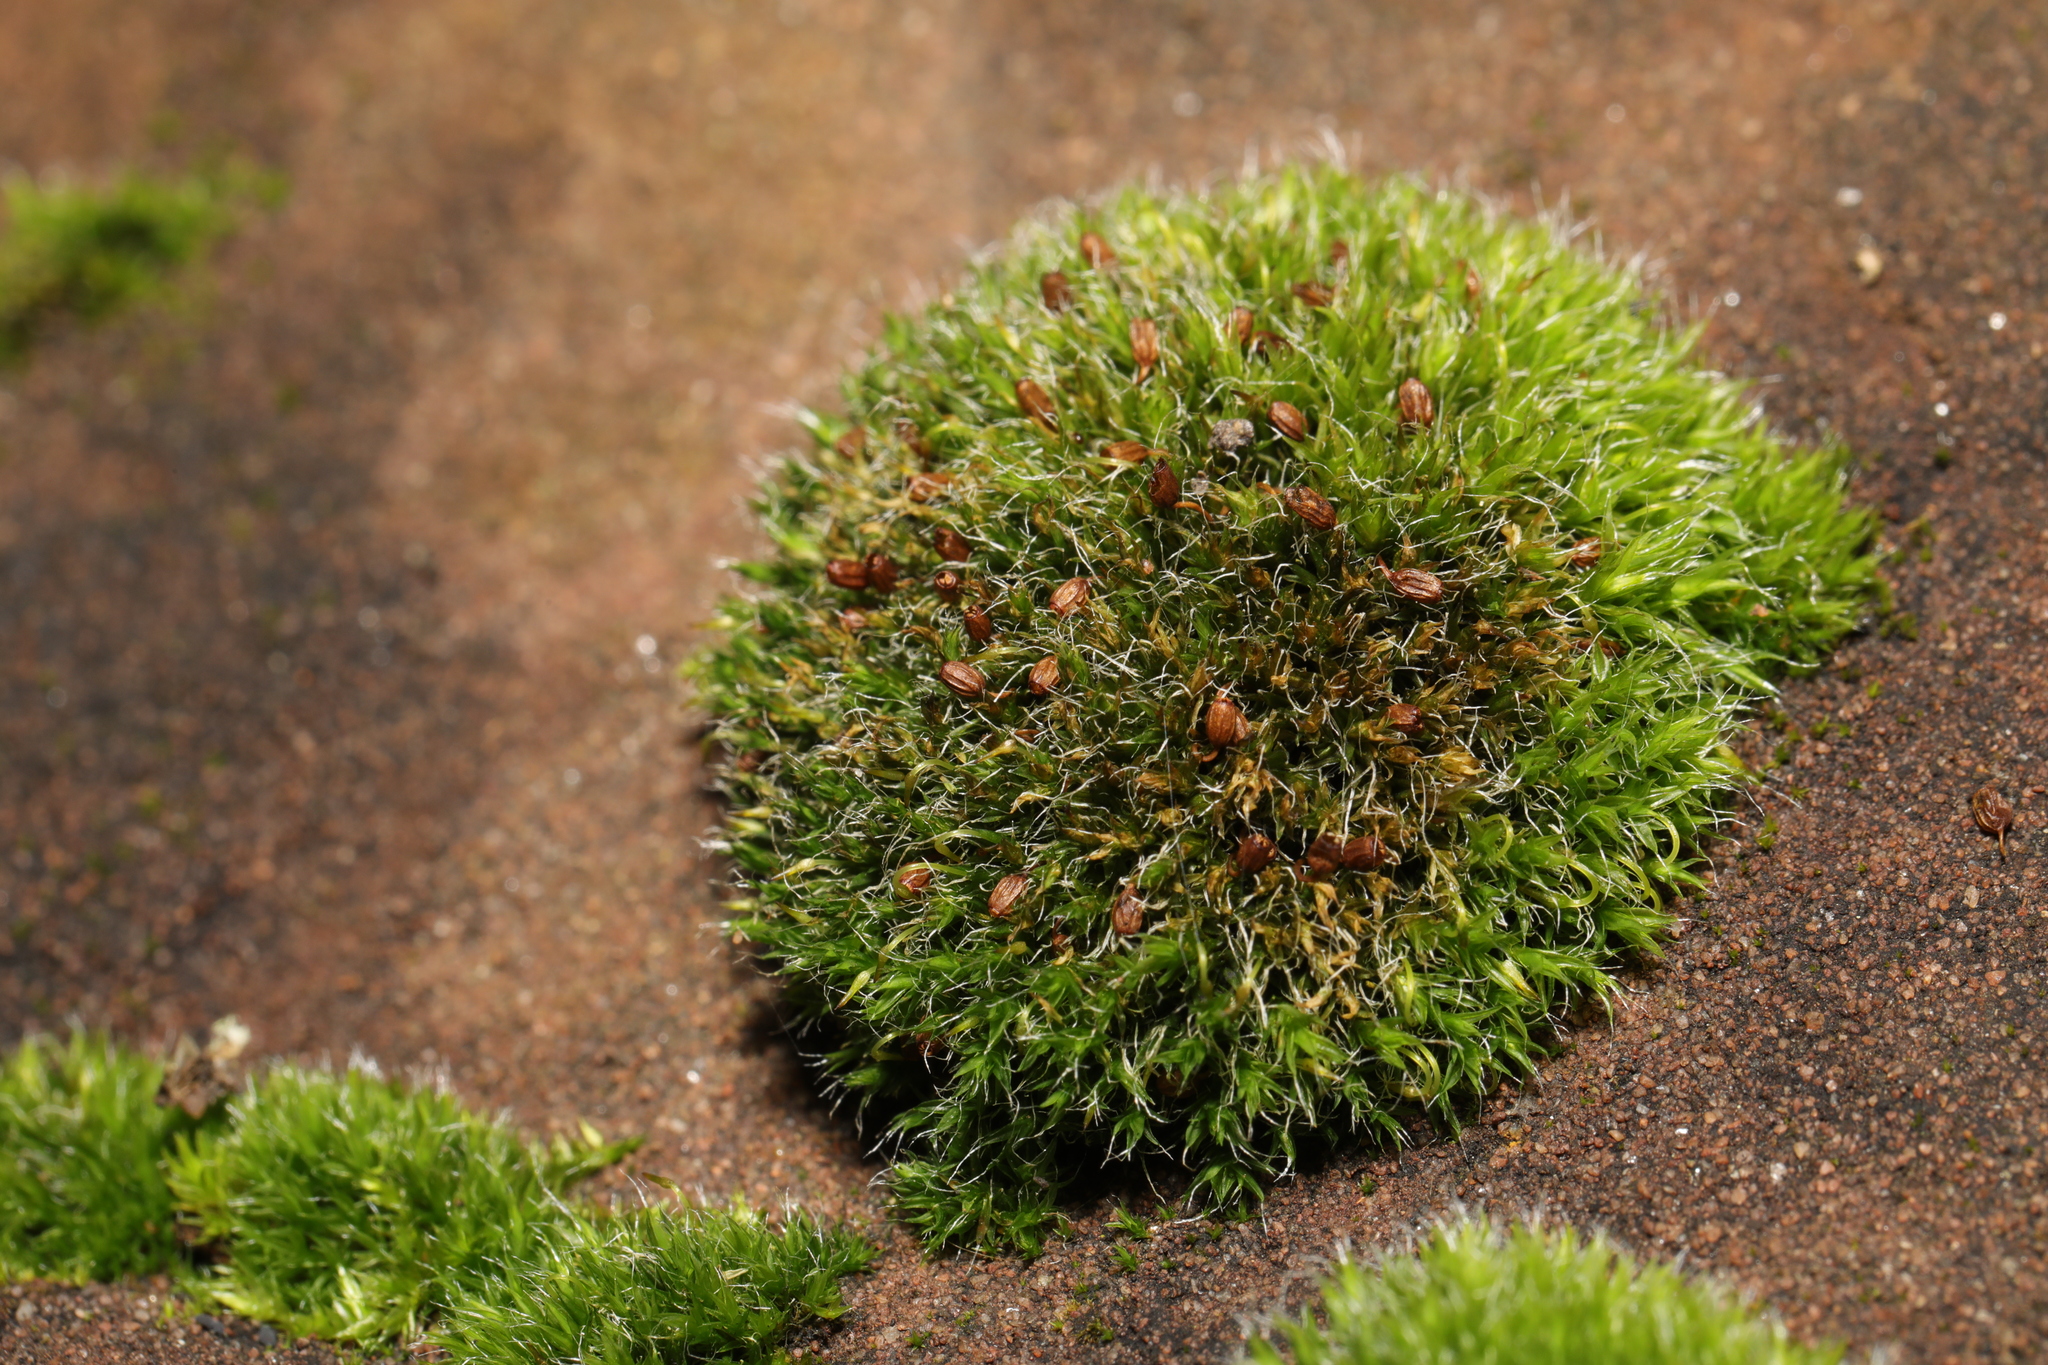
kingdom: Plantae
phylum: Bryophyta
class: Bryopsida
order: Grimmiales
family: Grimmiaceae
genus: Grimmia
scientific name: Grimmia pulvinata
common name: Grey-cushioned grimmia
